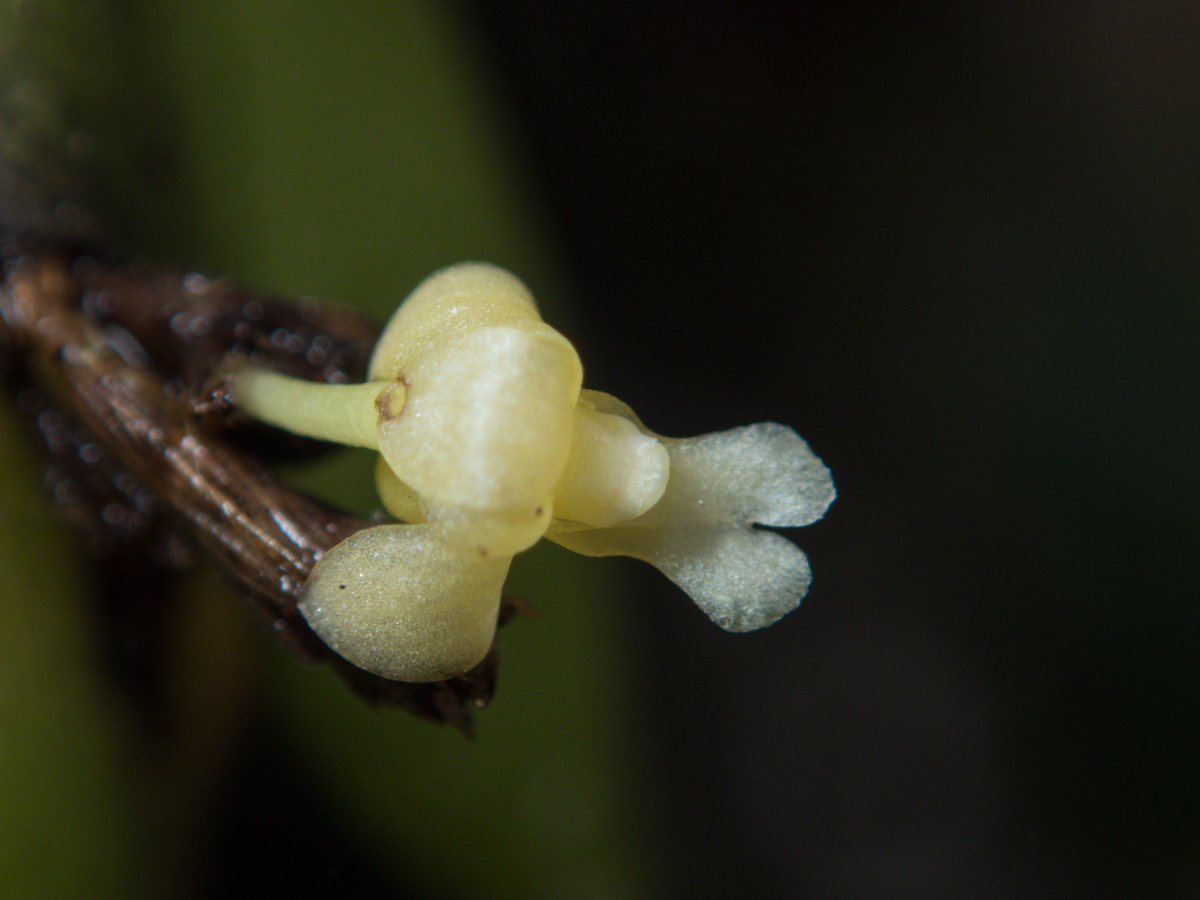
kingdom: Plantae
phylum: Tracheophyta
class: Liliopsida
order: Asparagales
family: Orchidaceae
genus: Dendrobium
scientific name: Dendrobium aloifolium
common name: Aloe-like dendrobium
